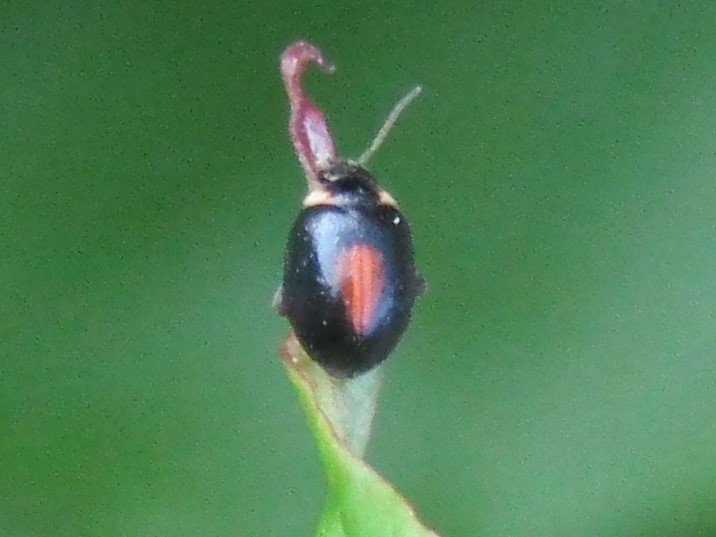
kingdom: Animalia
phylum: Arthropoda
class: Insecta
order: Coleoptera
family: Scirtidae
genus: Scirtes
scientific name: Scirtes orbiculatus
